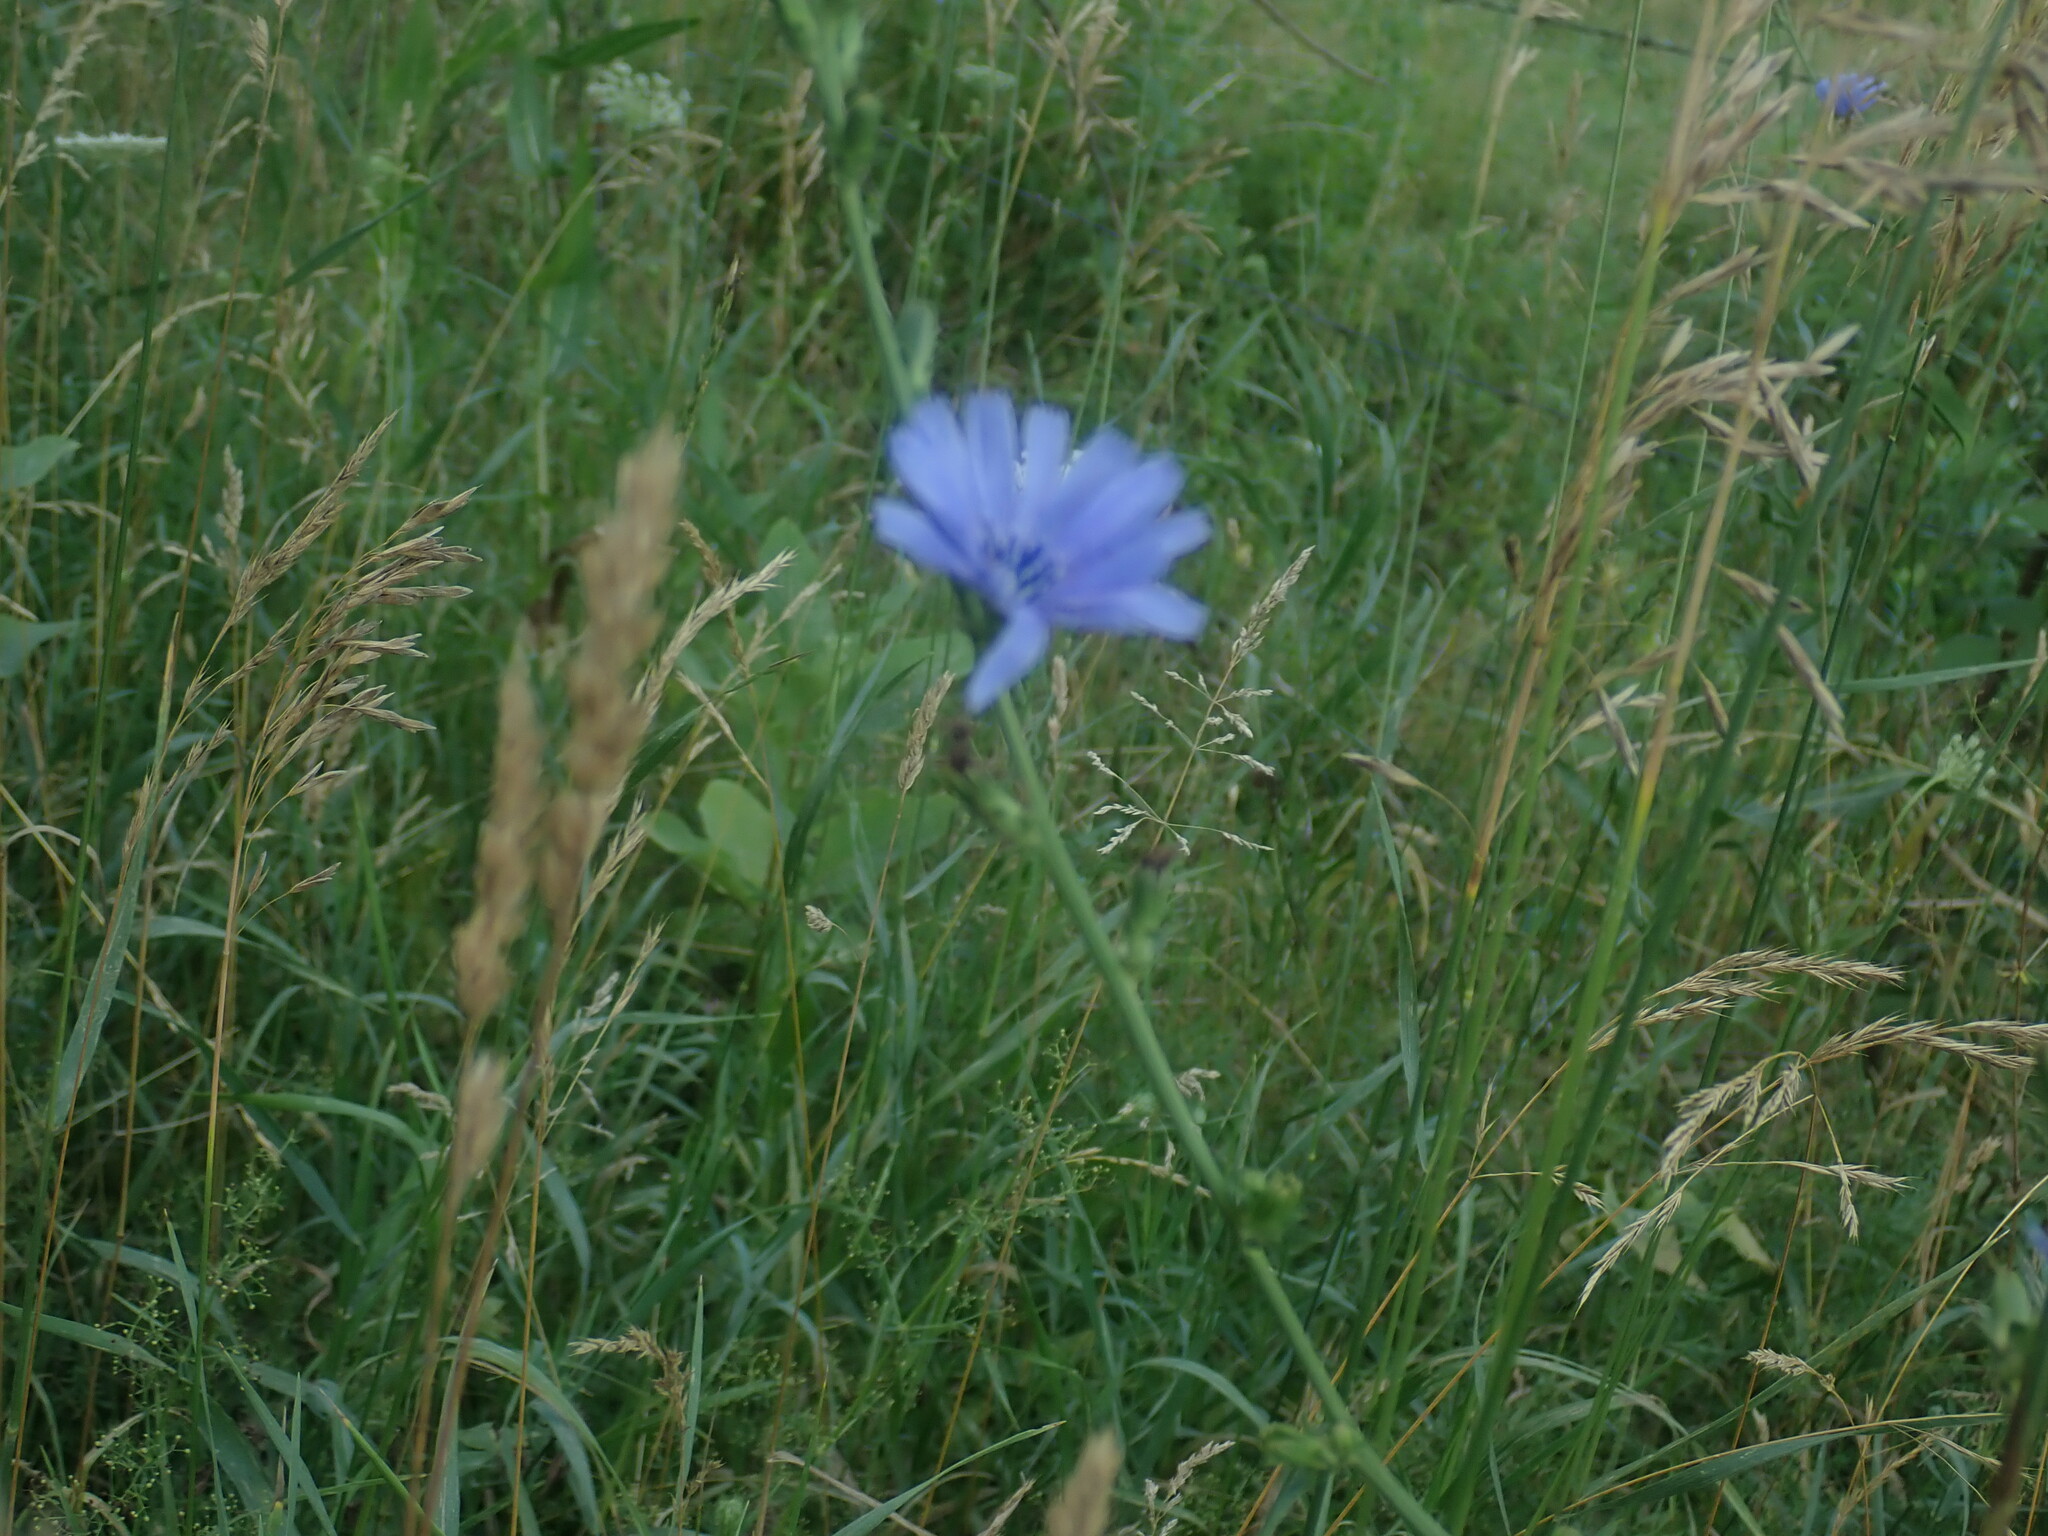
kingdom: Plantae
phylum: Tracheophyta
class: Magnoliopsida
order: Asterales
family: Asteraceae
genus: Cichorium
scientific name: Cichorium intybus
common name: Chicory
